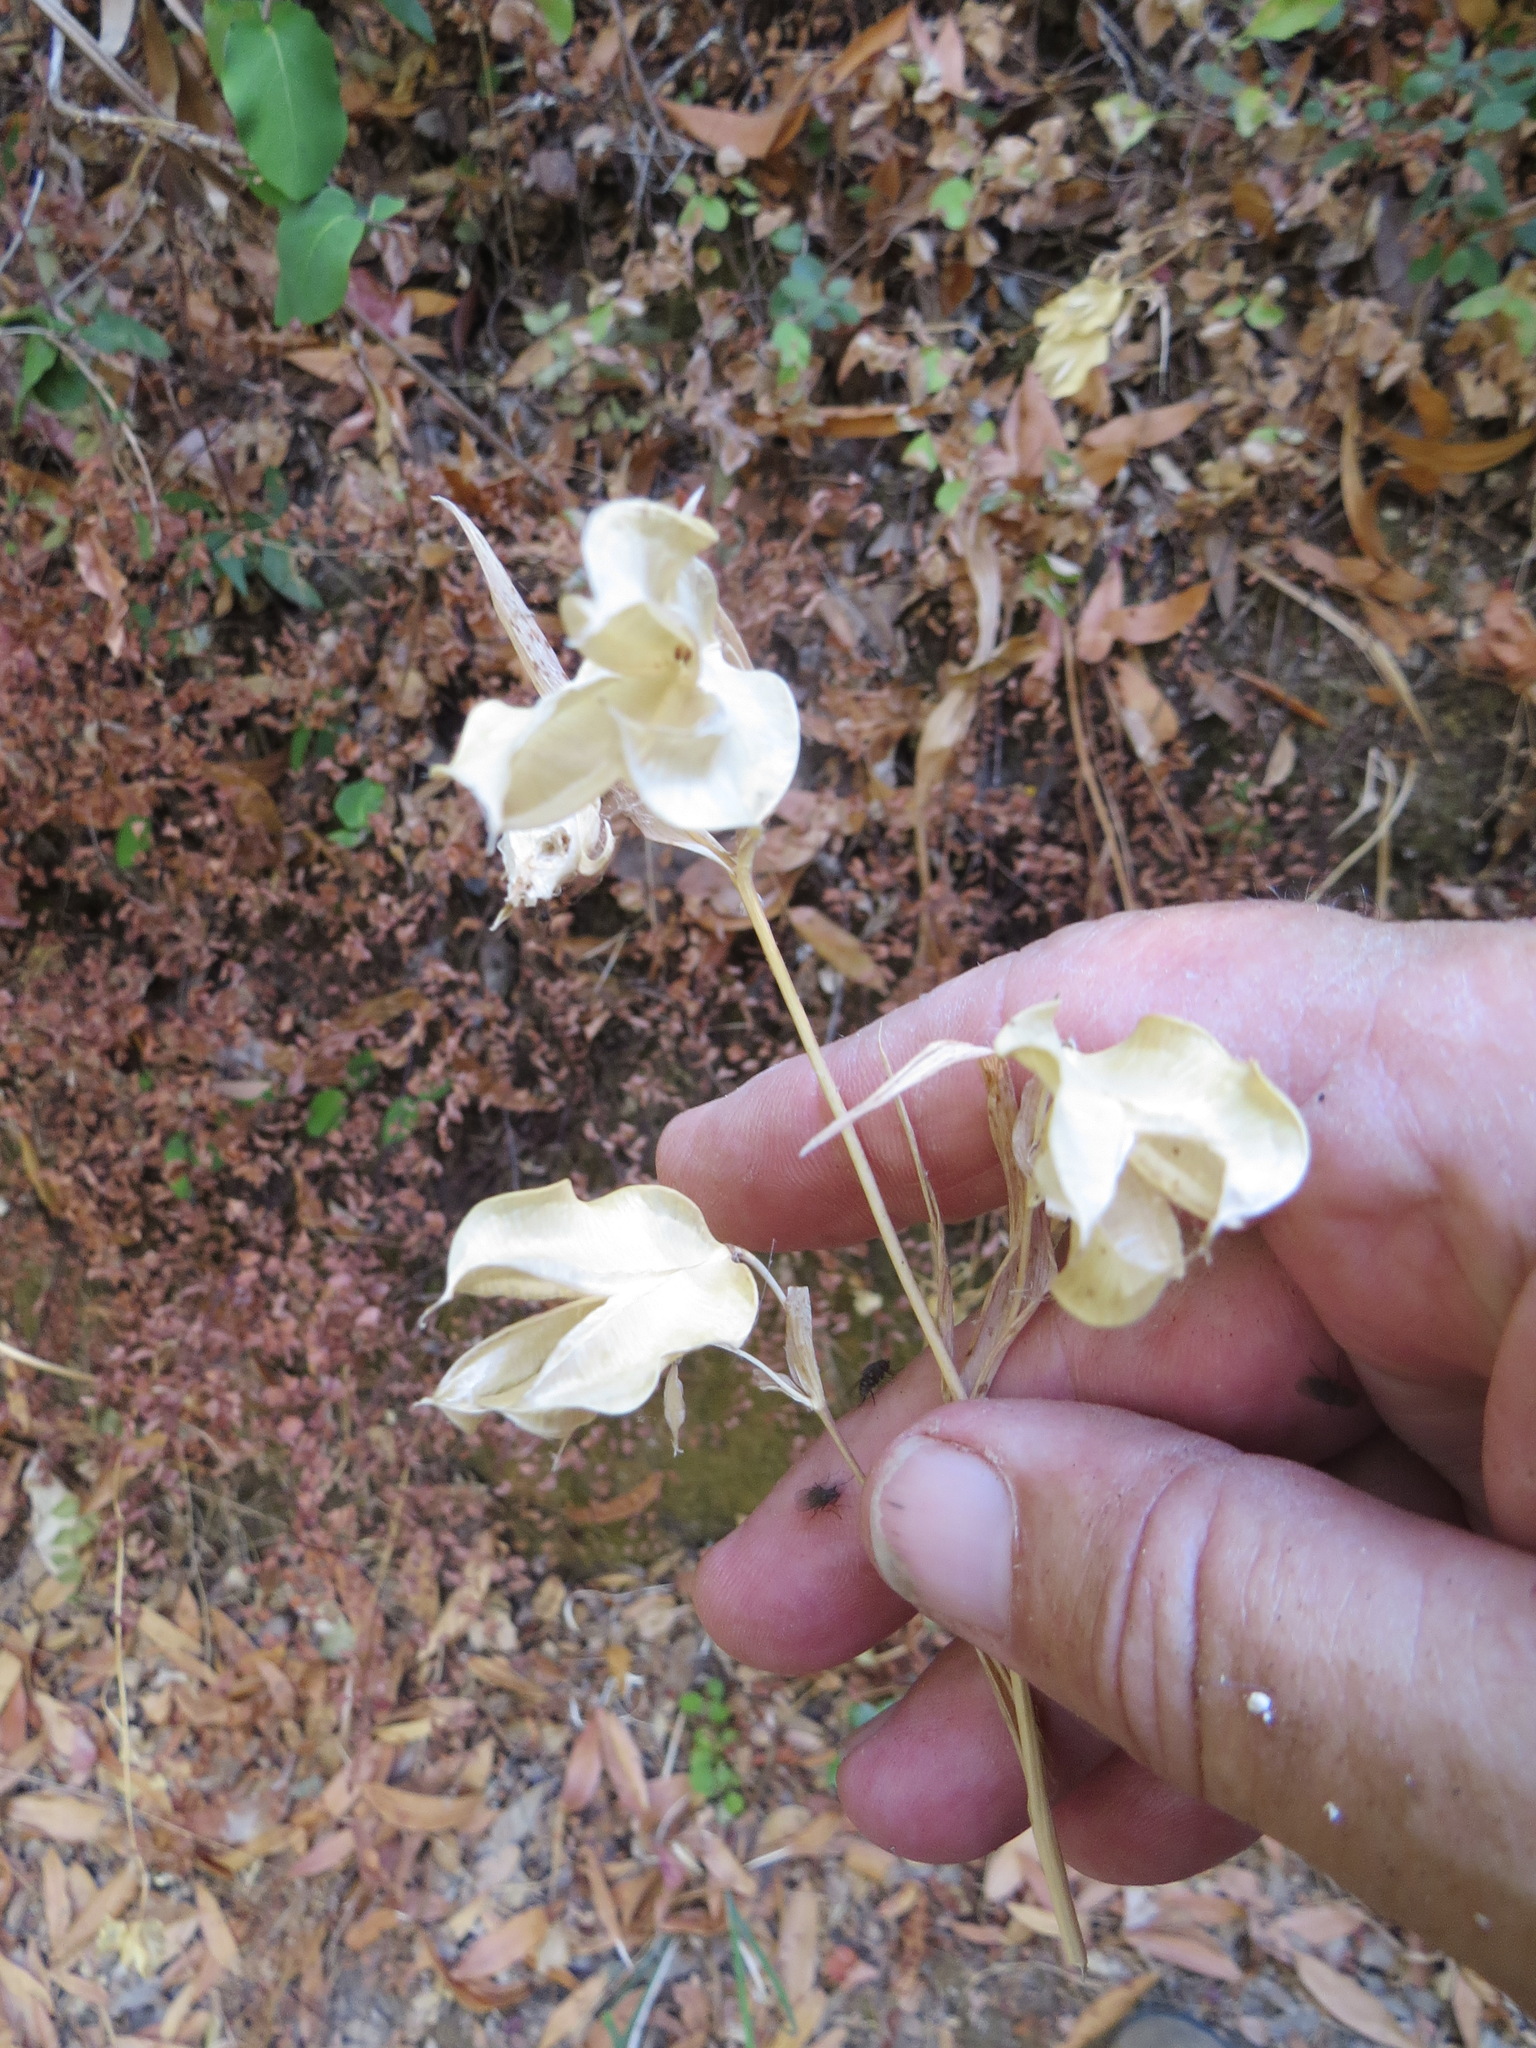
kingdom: Plantae
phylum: Tracheophyta
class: Liliopsida
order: Liliales
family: Liliaceae
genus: Calochortus
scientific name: Calochortus albus
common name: Fairy-lantern
